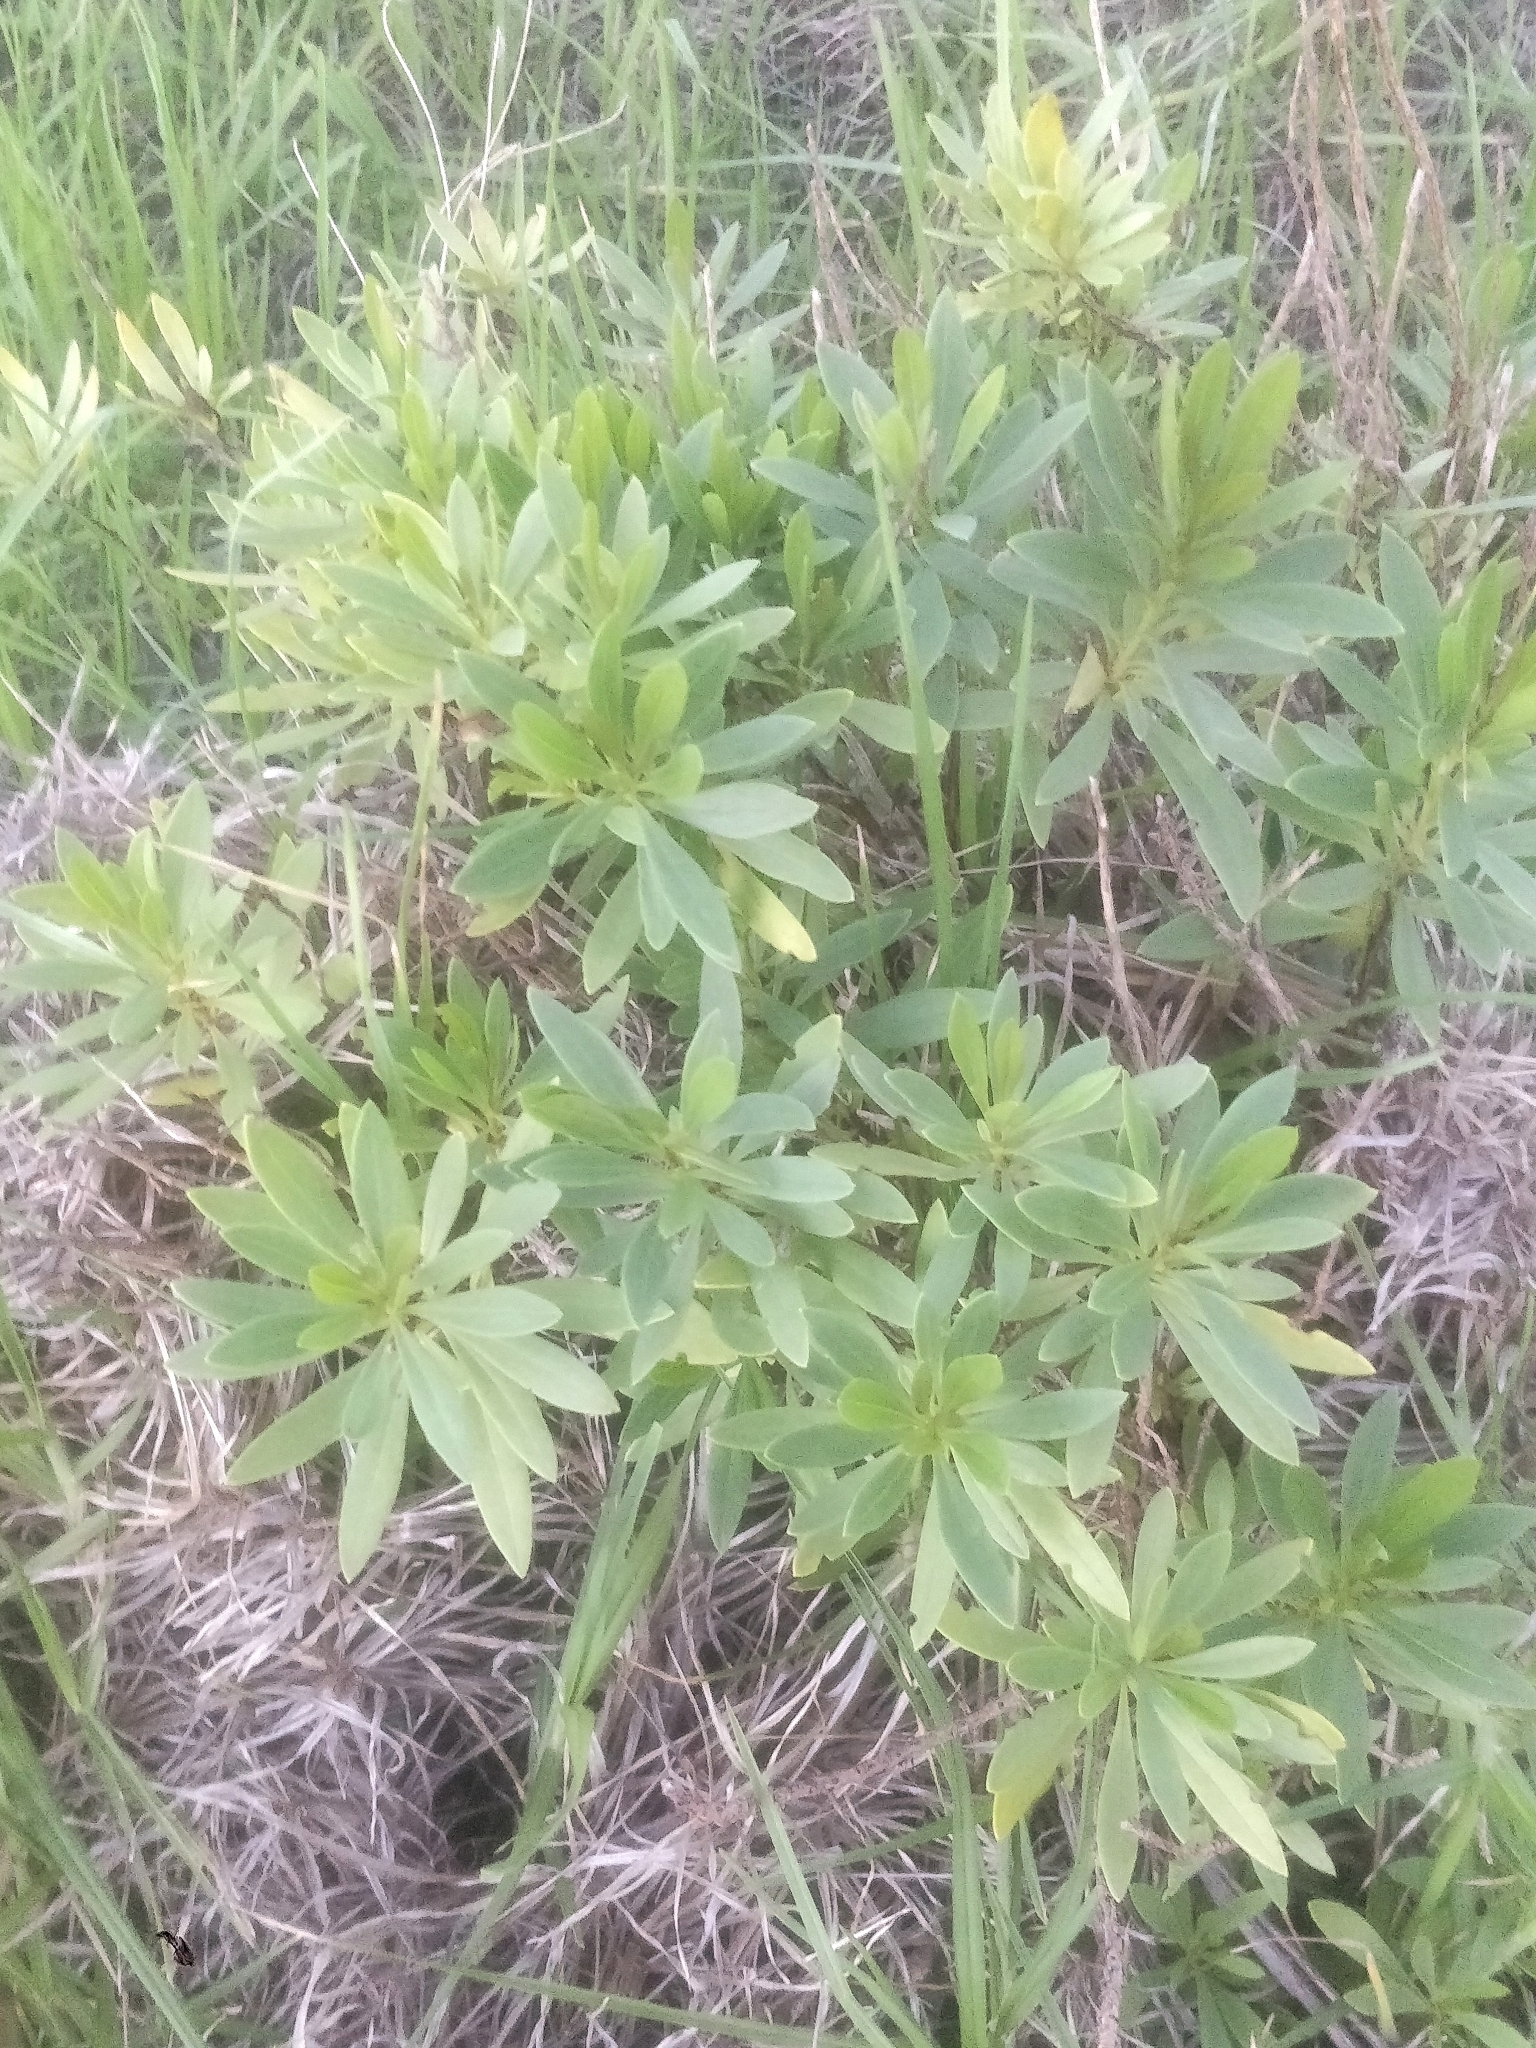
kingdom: Plantae
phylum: Tracheophyta
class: Magnoliopsida
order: Lamiales
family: Plantaginaceae
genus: Globularia
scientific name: Globularia salicina
